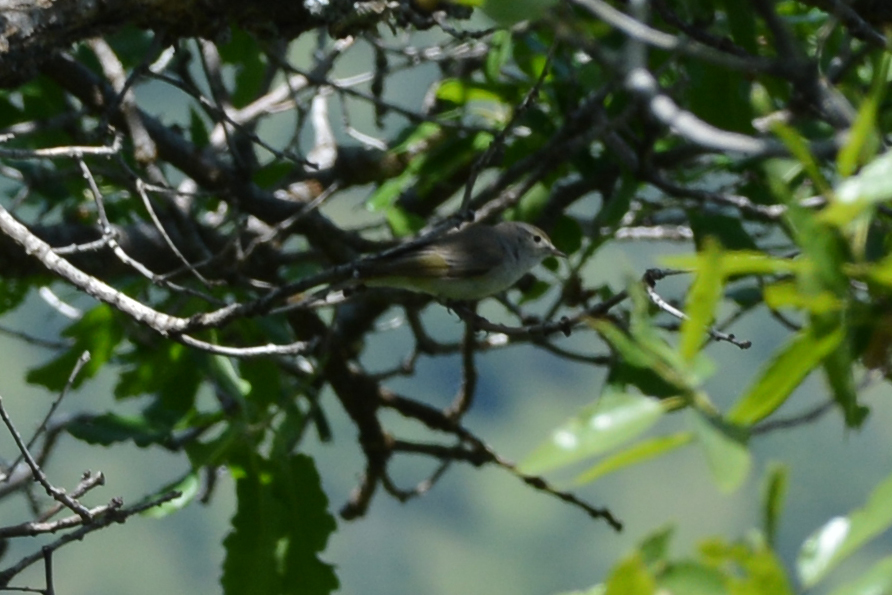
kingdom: Animalia
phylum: Chordata
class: Aves
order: Passeriformes
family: Phylloscopidae
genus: Phylloscopus
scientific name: Phylloscopus orientalis
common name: Eastern bonelli's warbler
